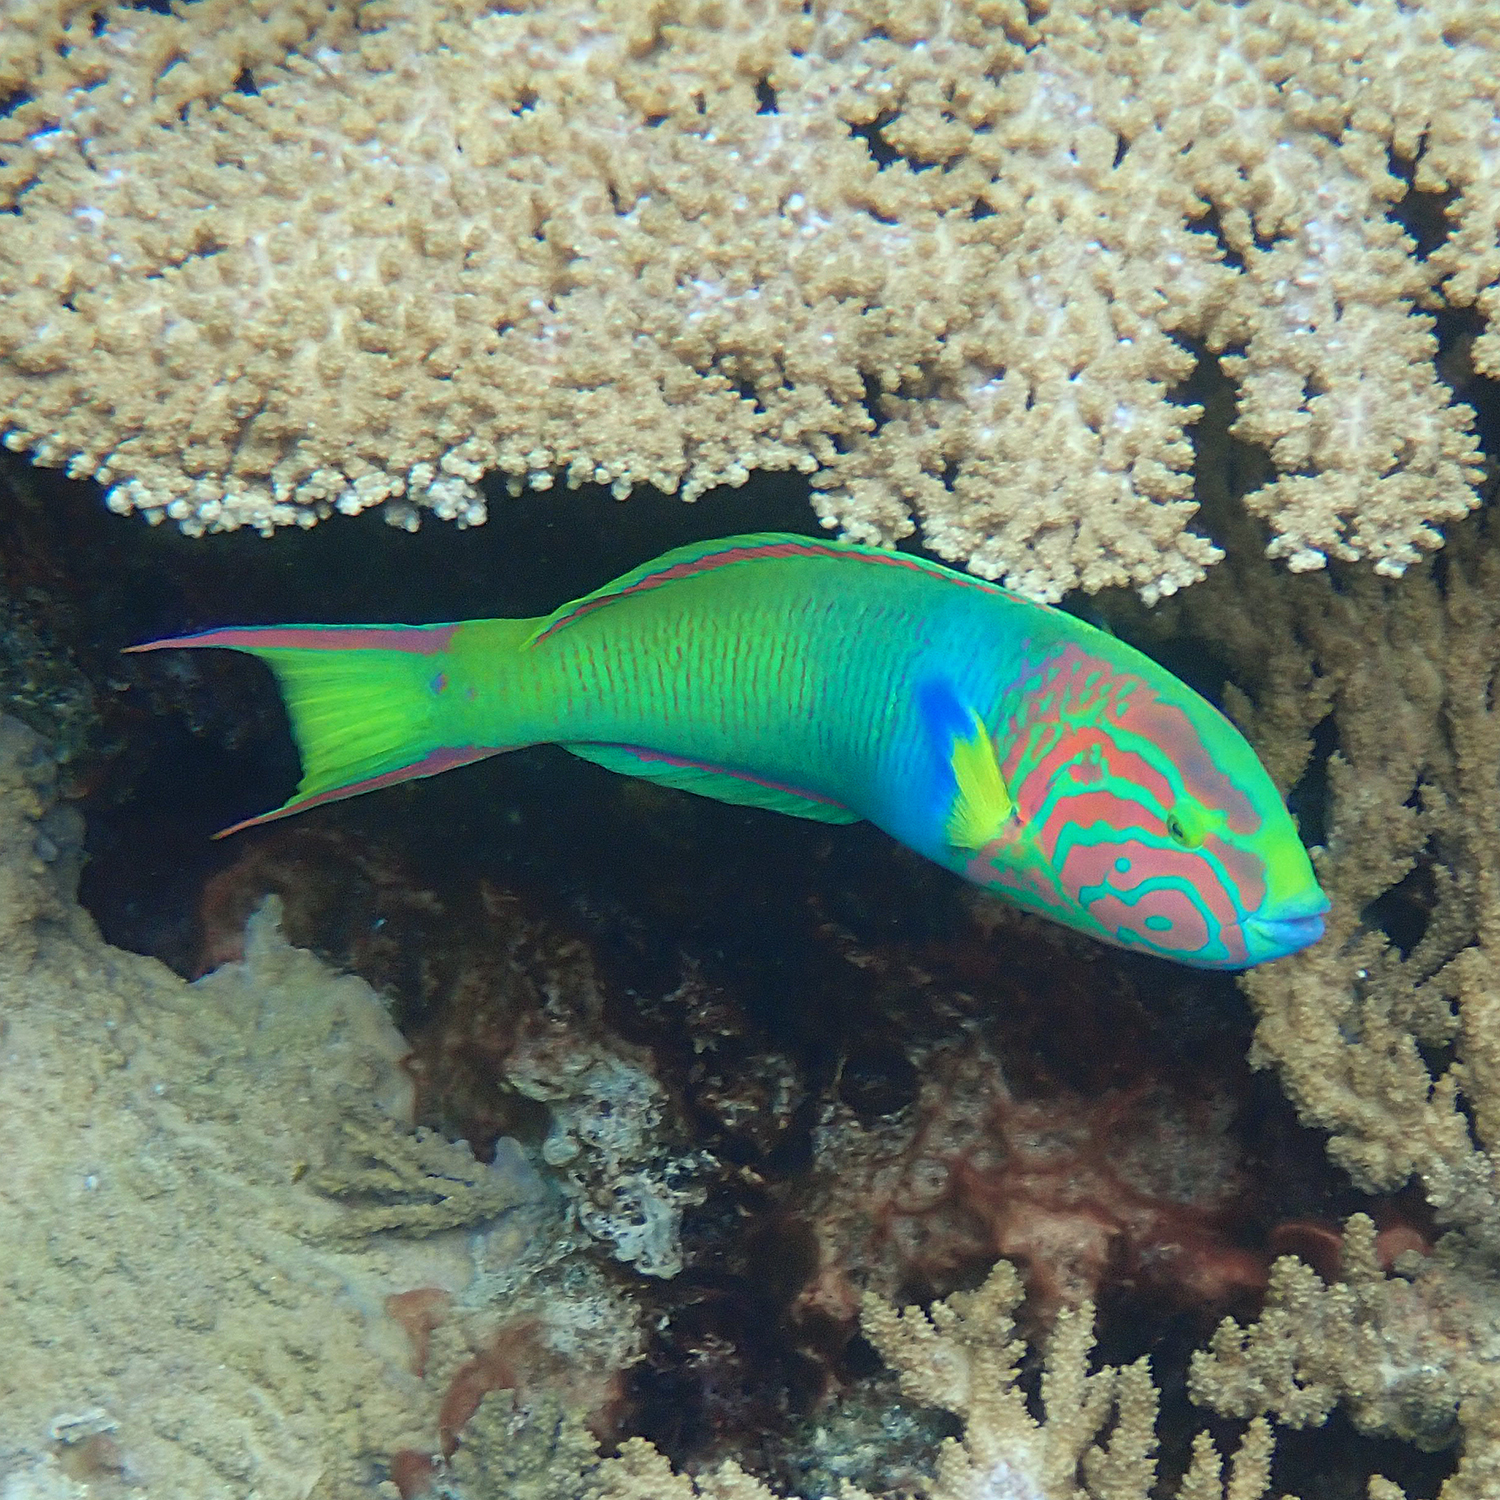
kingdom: Animalia
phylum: Chordata
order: Perciformes
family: Labridae
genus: Thalassoma
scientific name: Thalassoma lutescens
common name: Green moon wrasse
